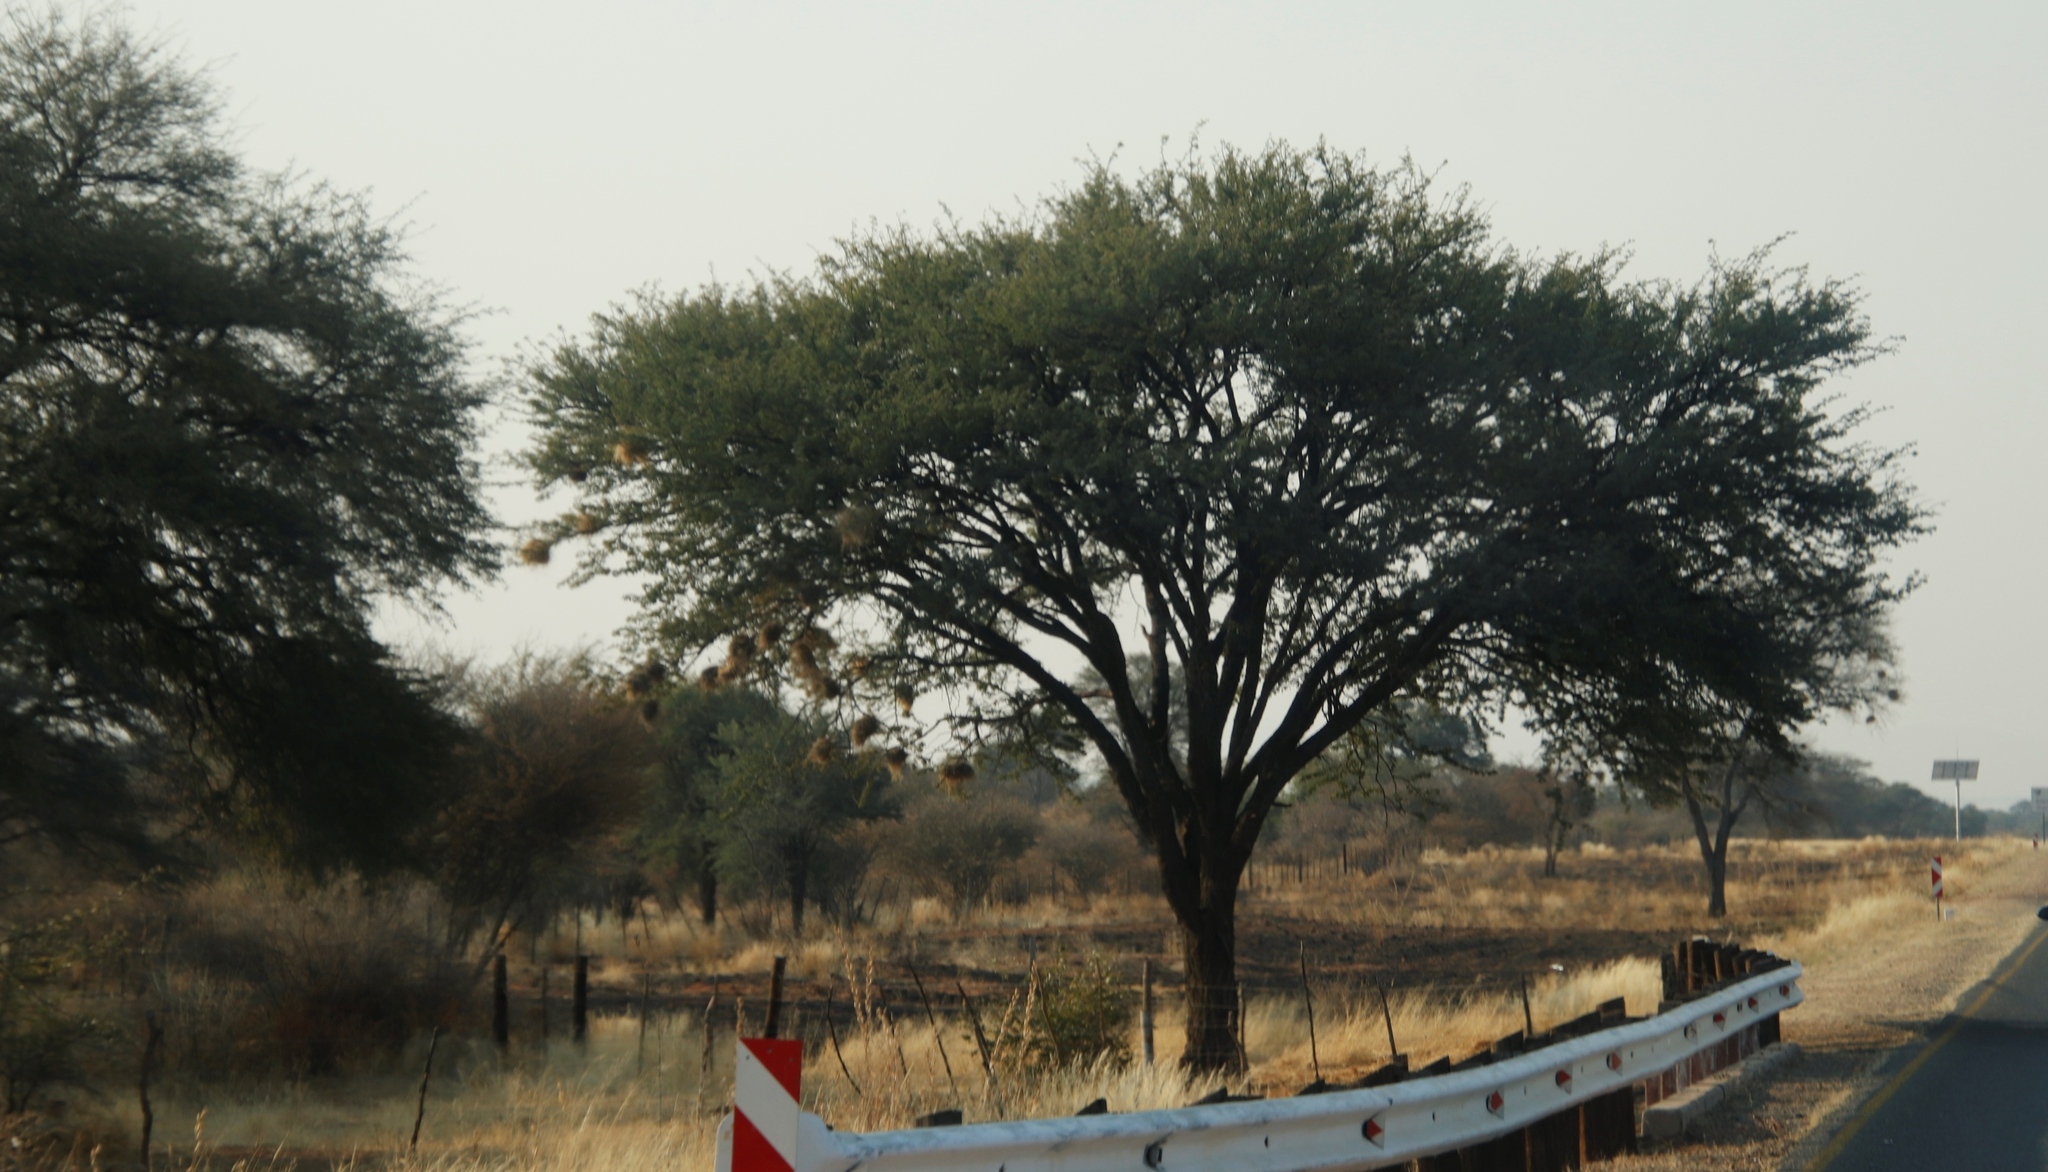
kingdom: Plantae
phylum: Tracheophyta
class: Magnoliopsida
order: Fabales
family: Fabaceae
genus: Vachellia
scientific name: Vachellia erioloba
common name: Camel thorn
